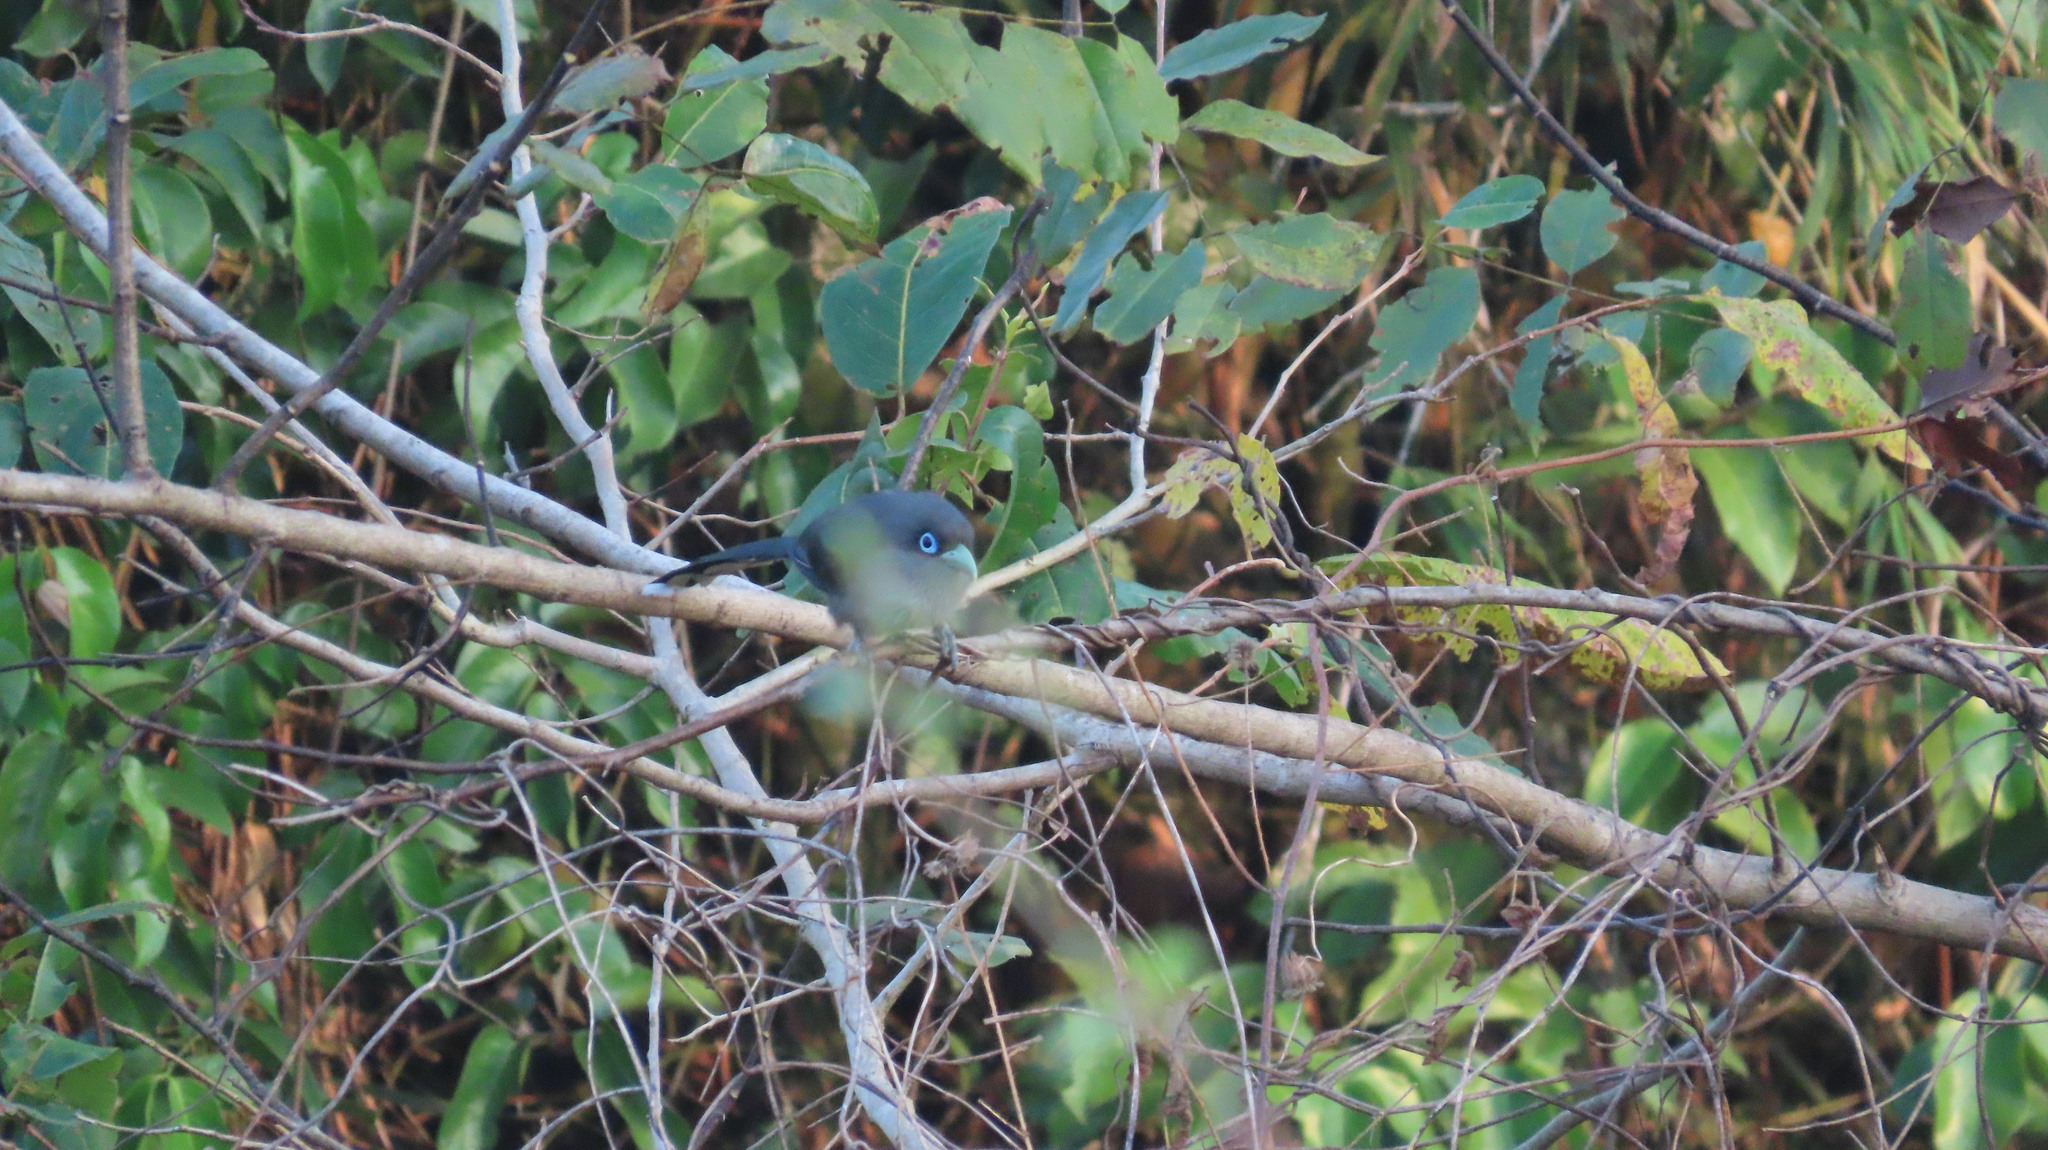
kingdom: Animalia
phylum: Chordata
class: Aves
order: Cuculiformes
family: Cuculidae
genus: Rhopodytes
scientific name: Rhopodytes viridirostris
